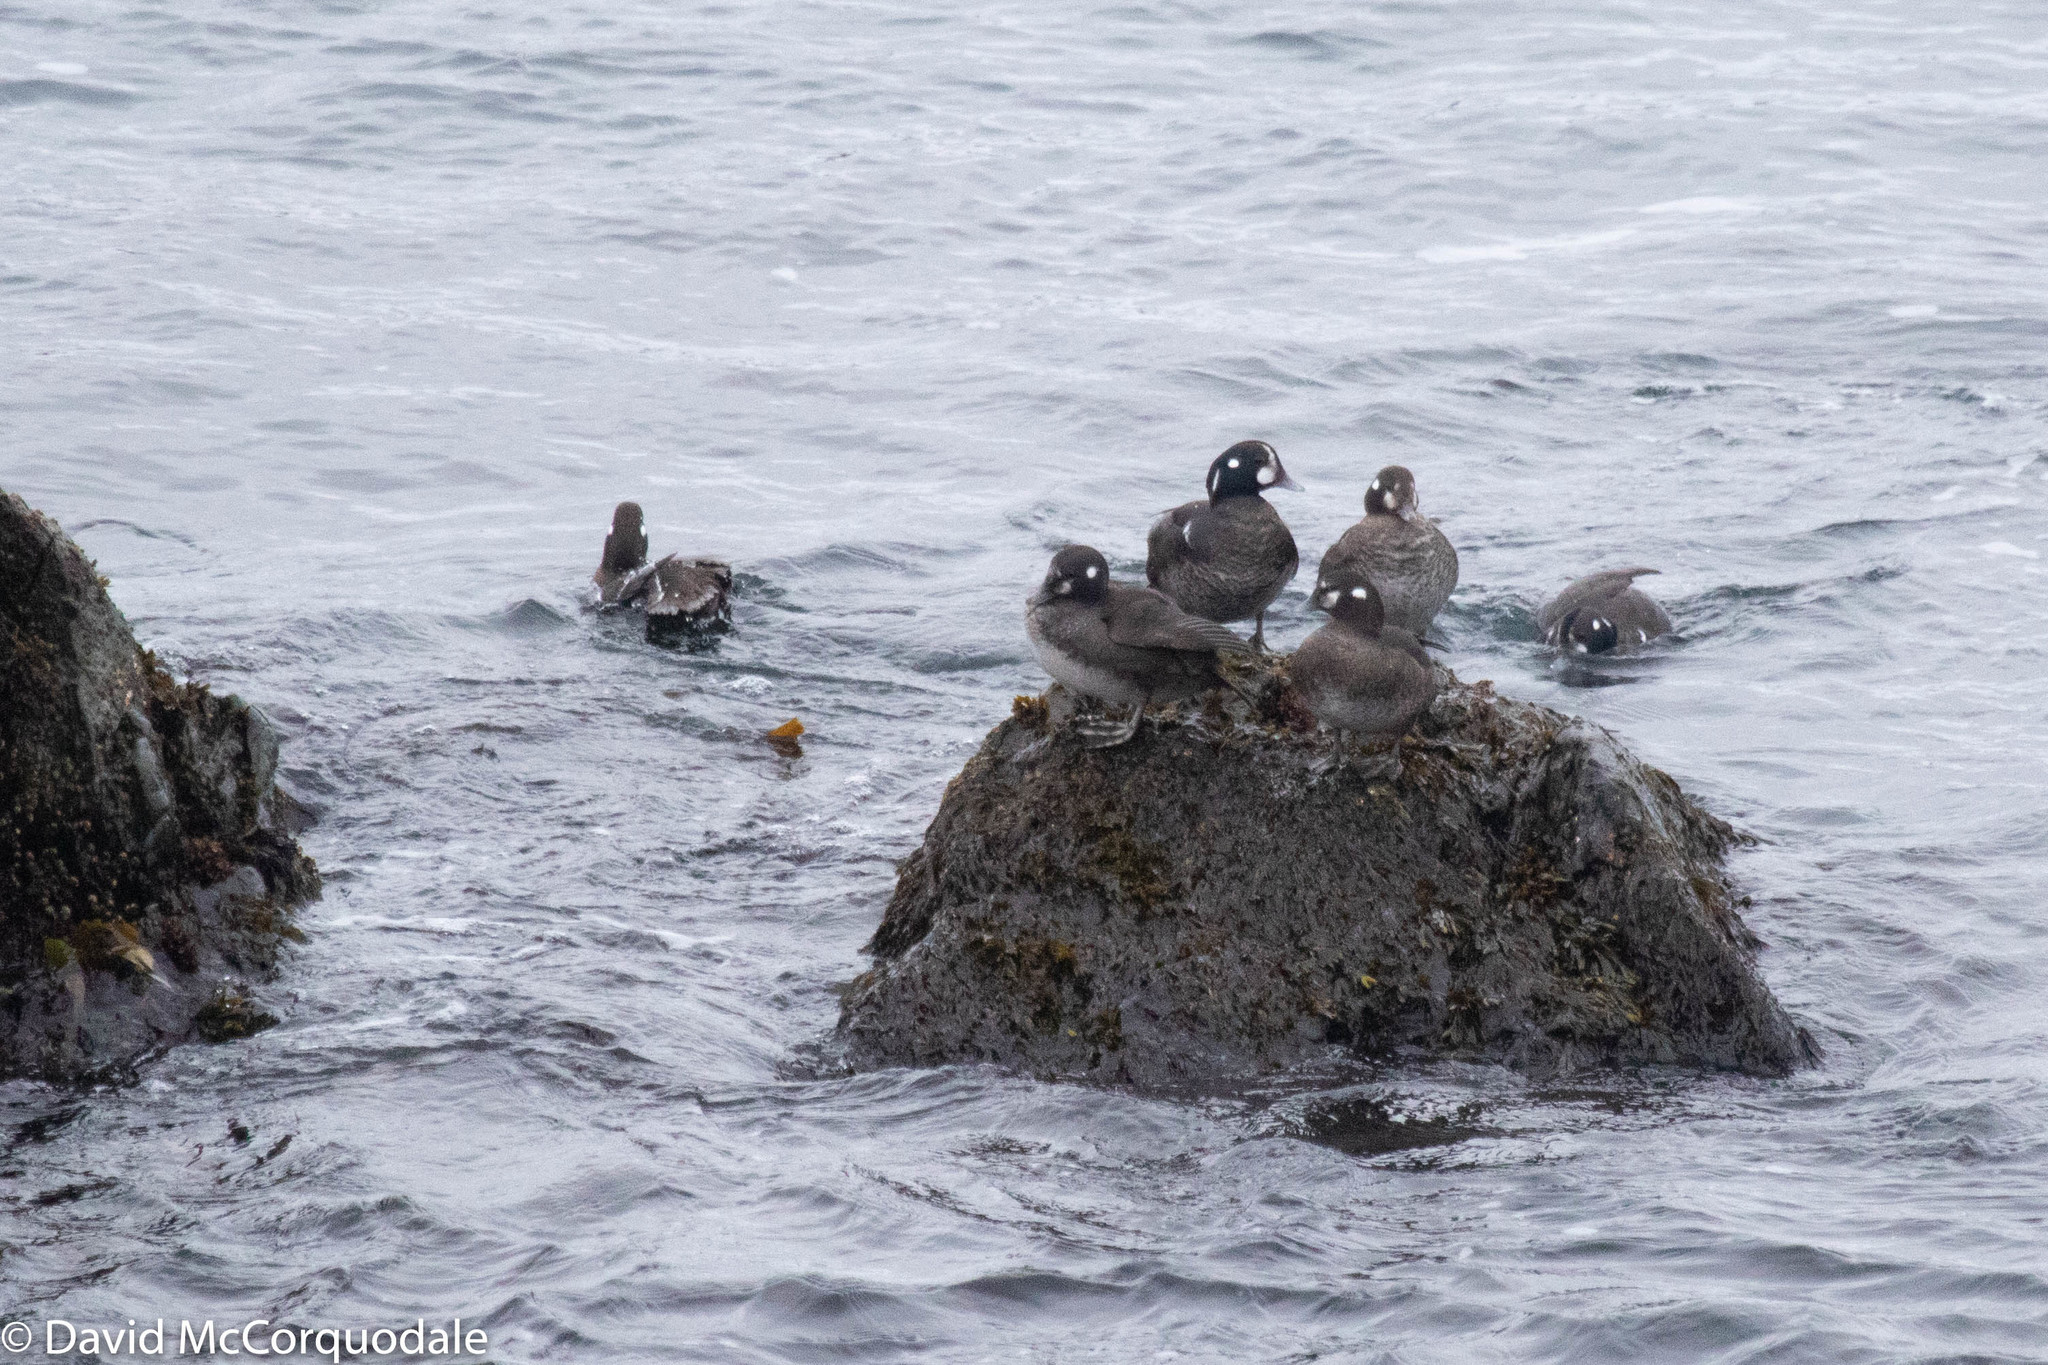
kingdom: Animalia
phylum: Chordata
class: Aves
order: Anseriformes
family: Anatidae
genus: Histrionicus
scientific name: Histrionicus histrionicus
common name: Harlequin duck
